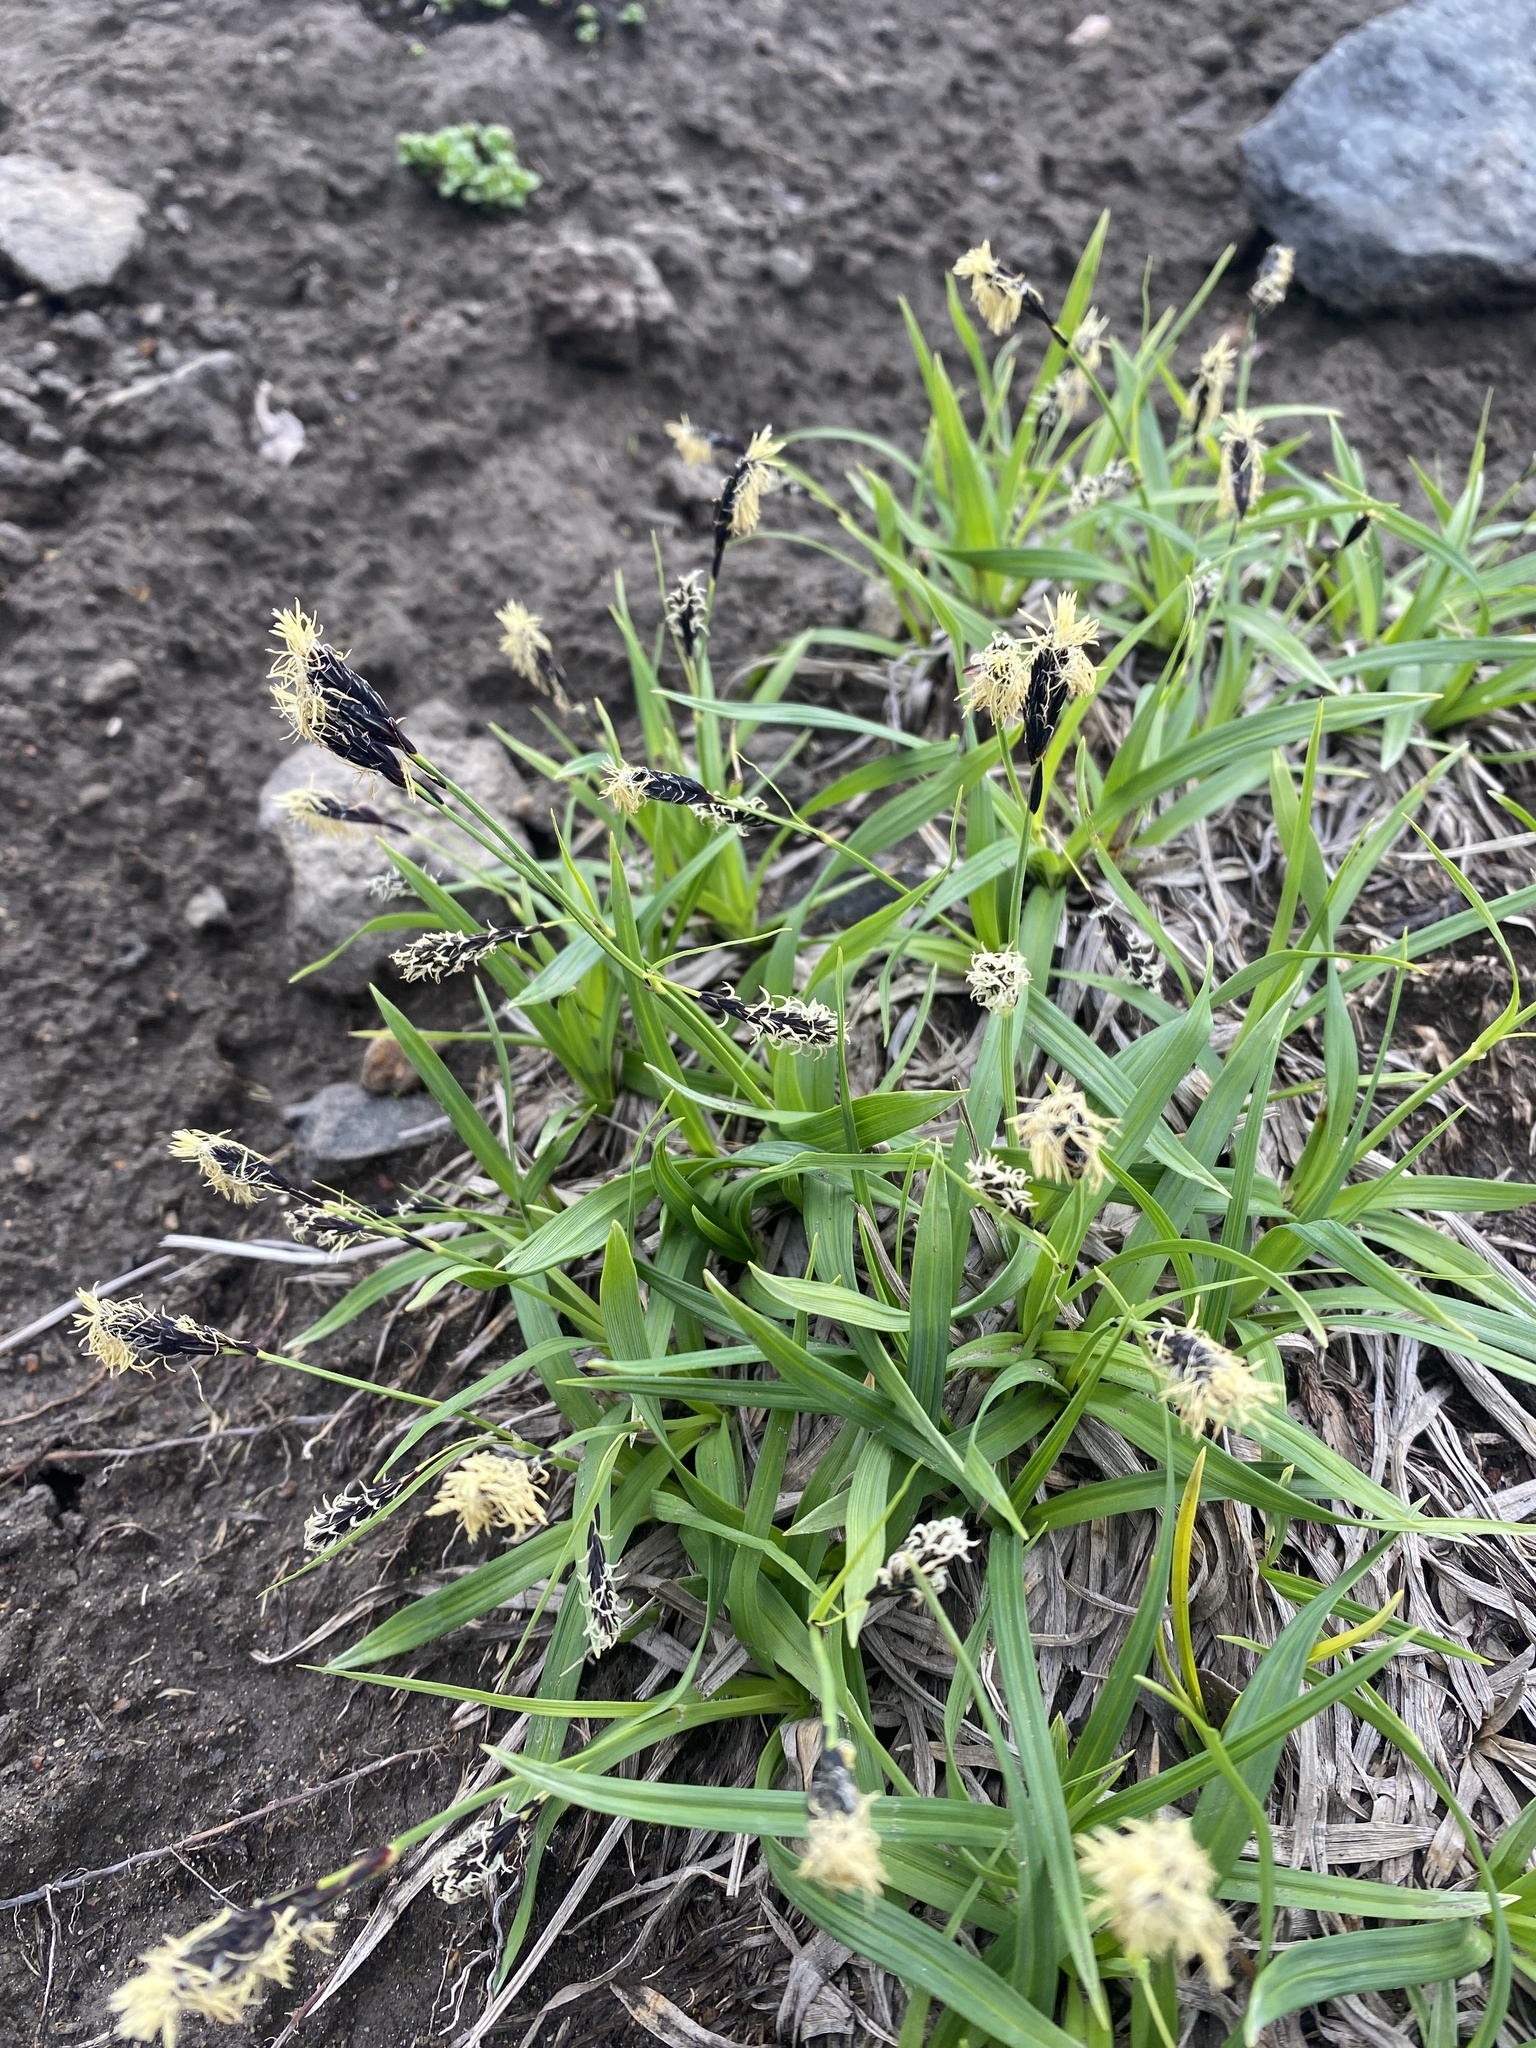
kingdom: Plantae
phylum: Tracheophyta
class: Liliopsida
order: Poales
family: Cyperaceae
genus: Carex
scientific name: Carex scita
